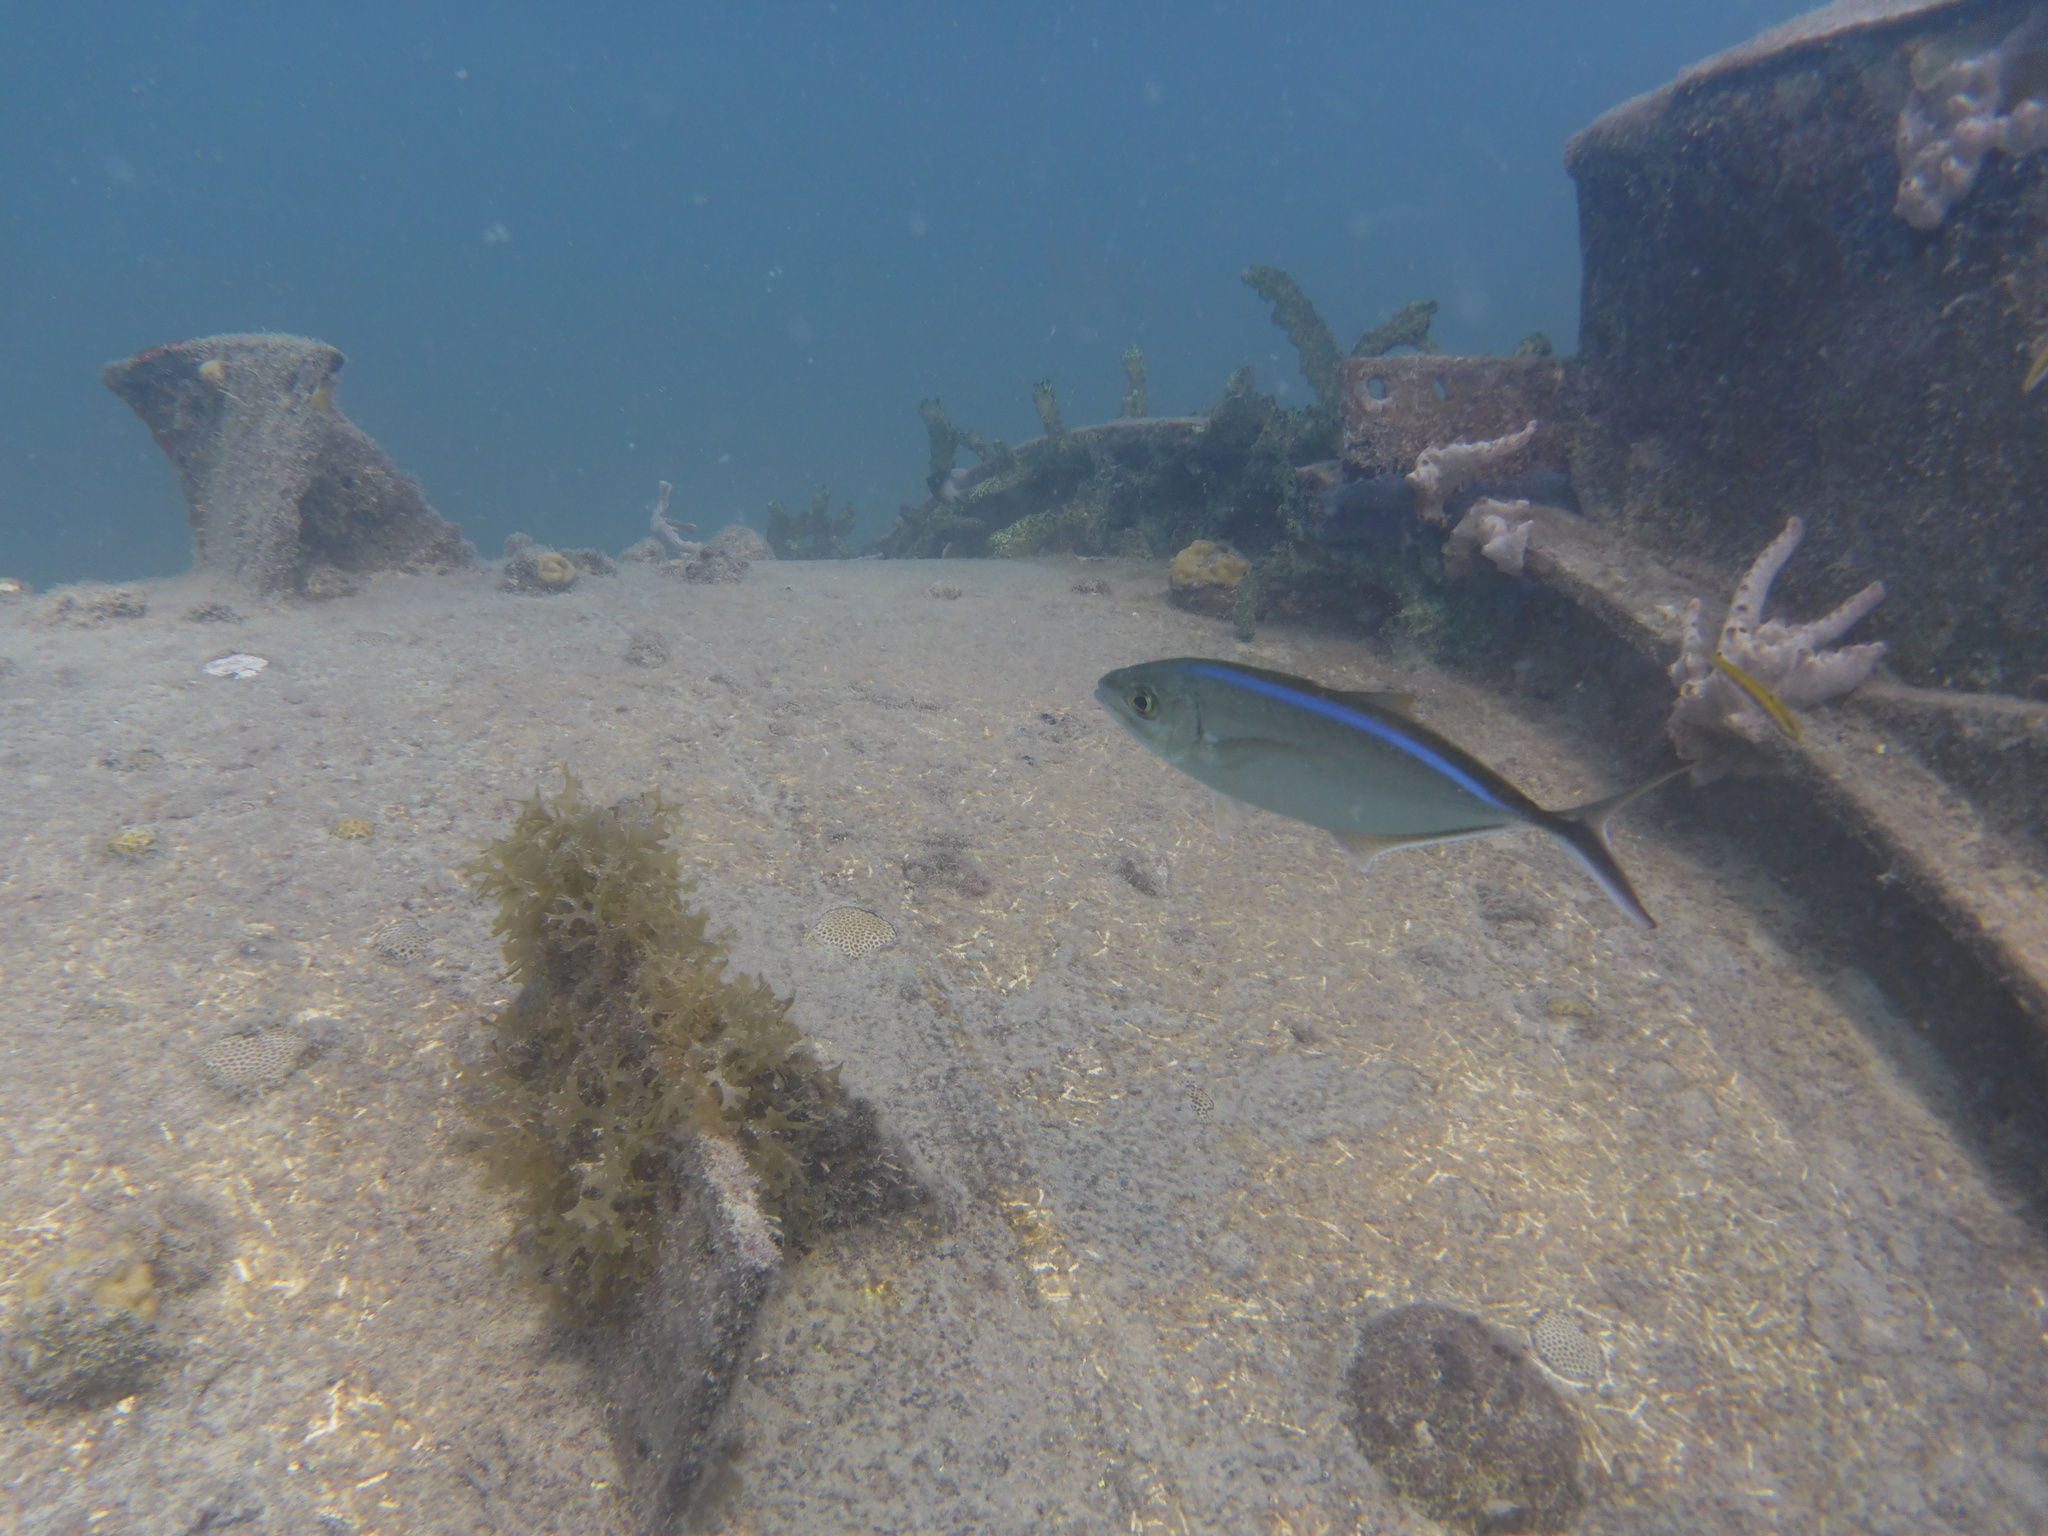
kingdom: Animalia
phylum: Chordata
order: Perciformes
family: Carangidae
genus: Caranx
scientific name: Caranx ruber
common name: Bar jack
